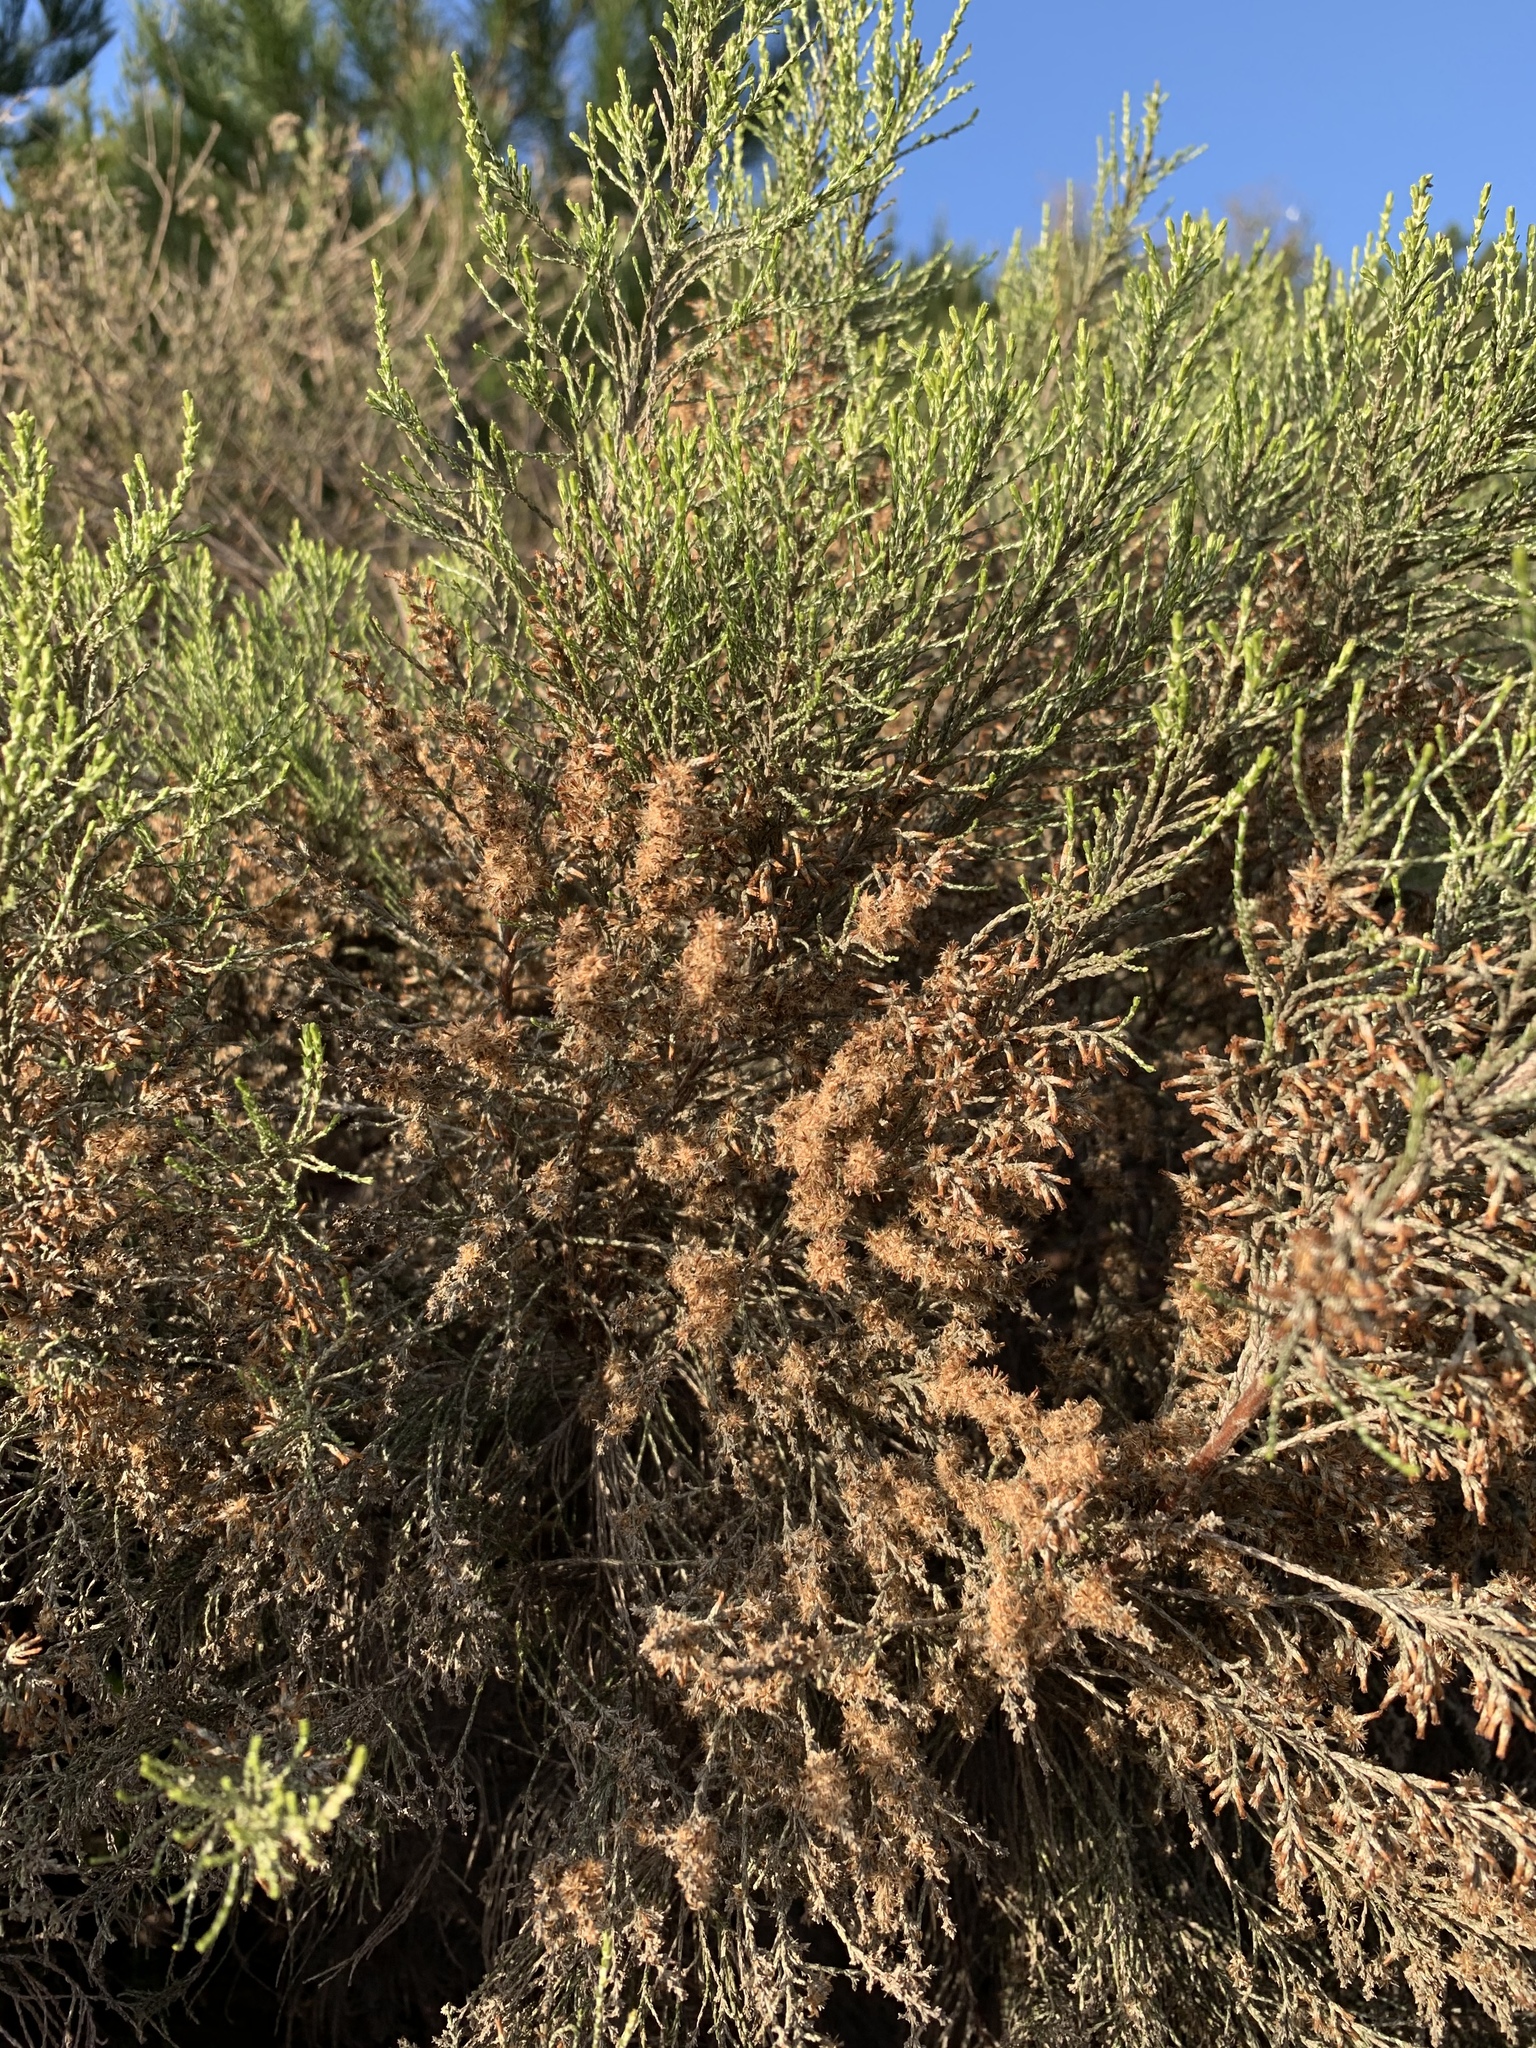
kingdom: Plantae
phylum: Tracheophyta
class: Magnoliopsida
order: Asterales
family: Asteraceae
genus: Dicerothamnus
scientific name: Dicerothamnus rhinocerotis
